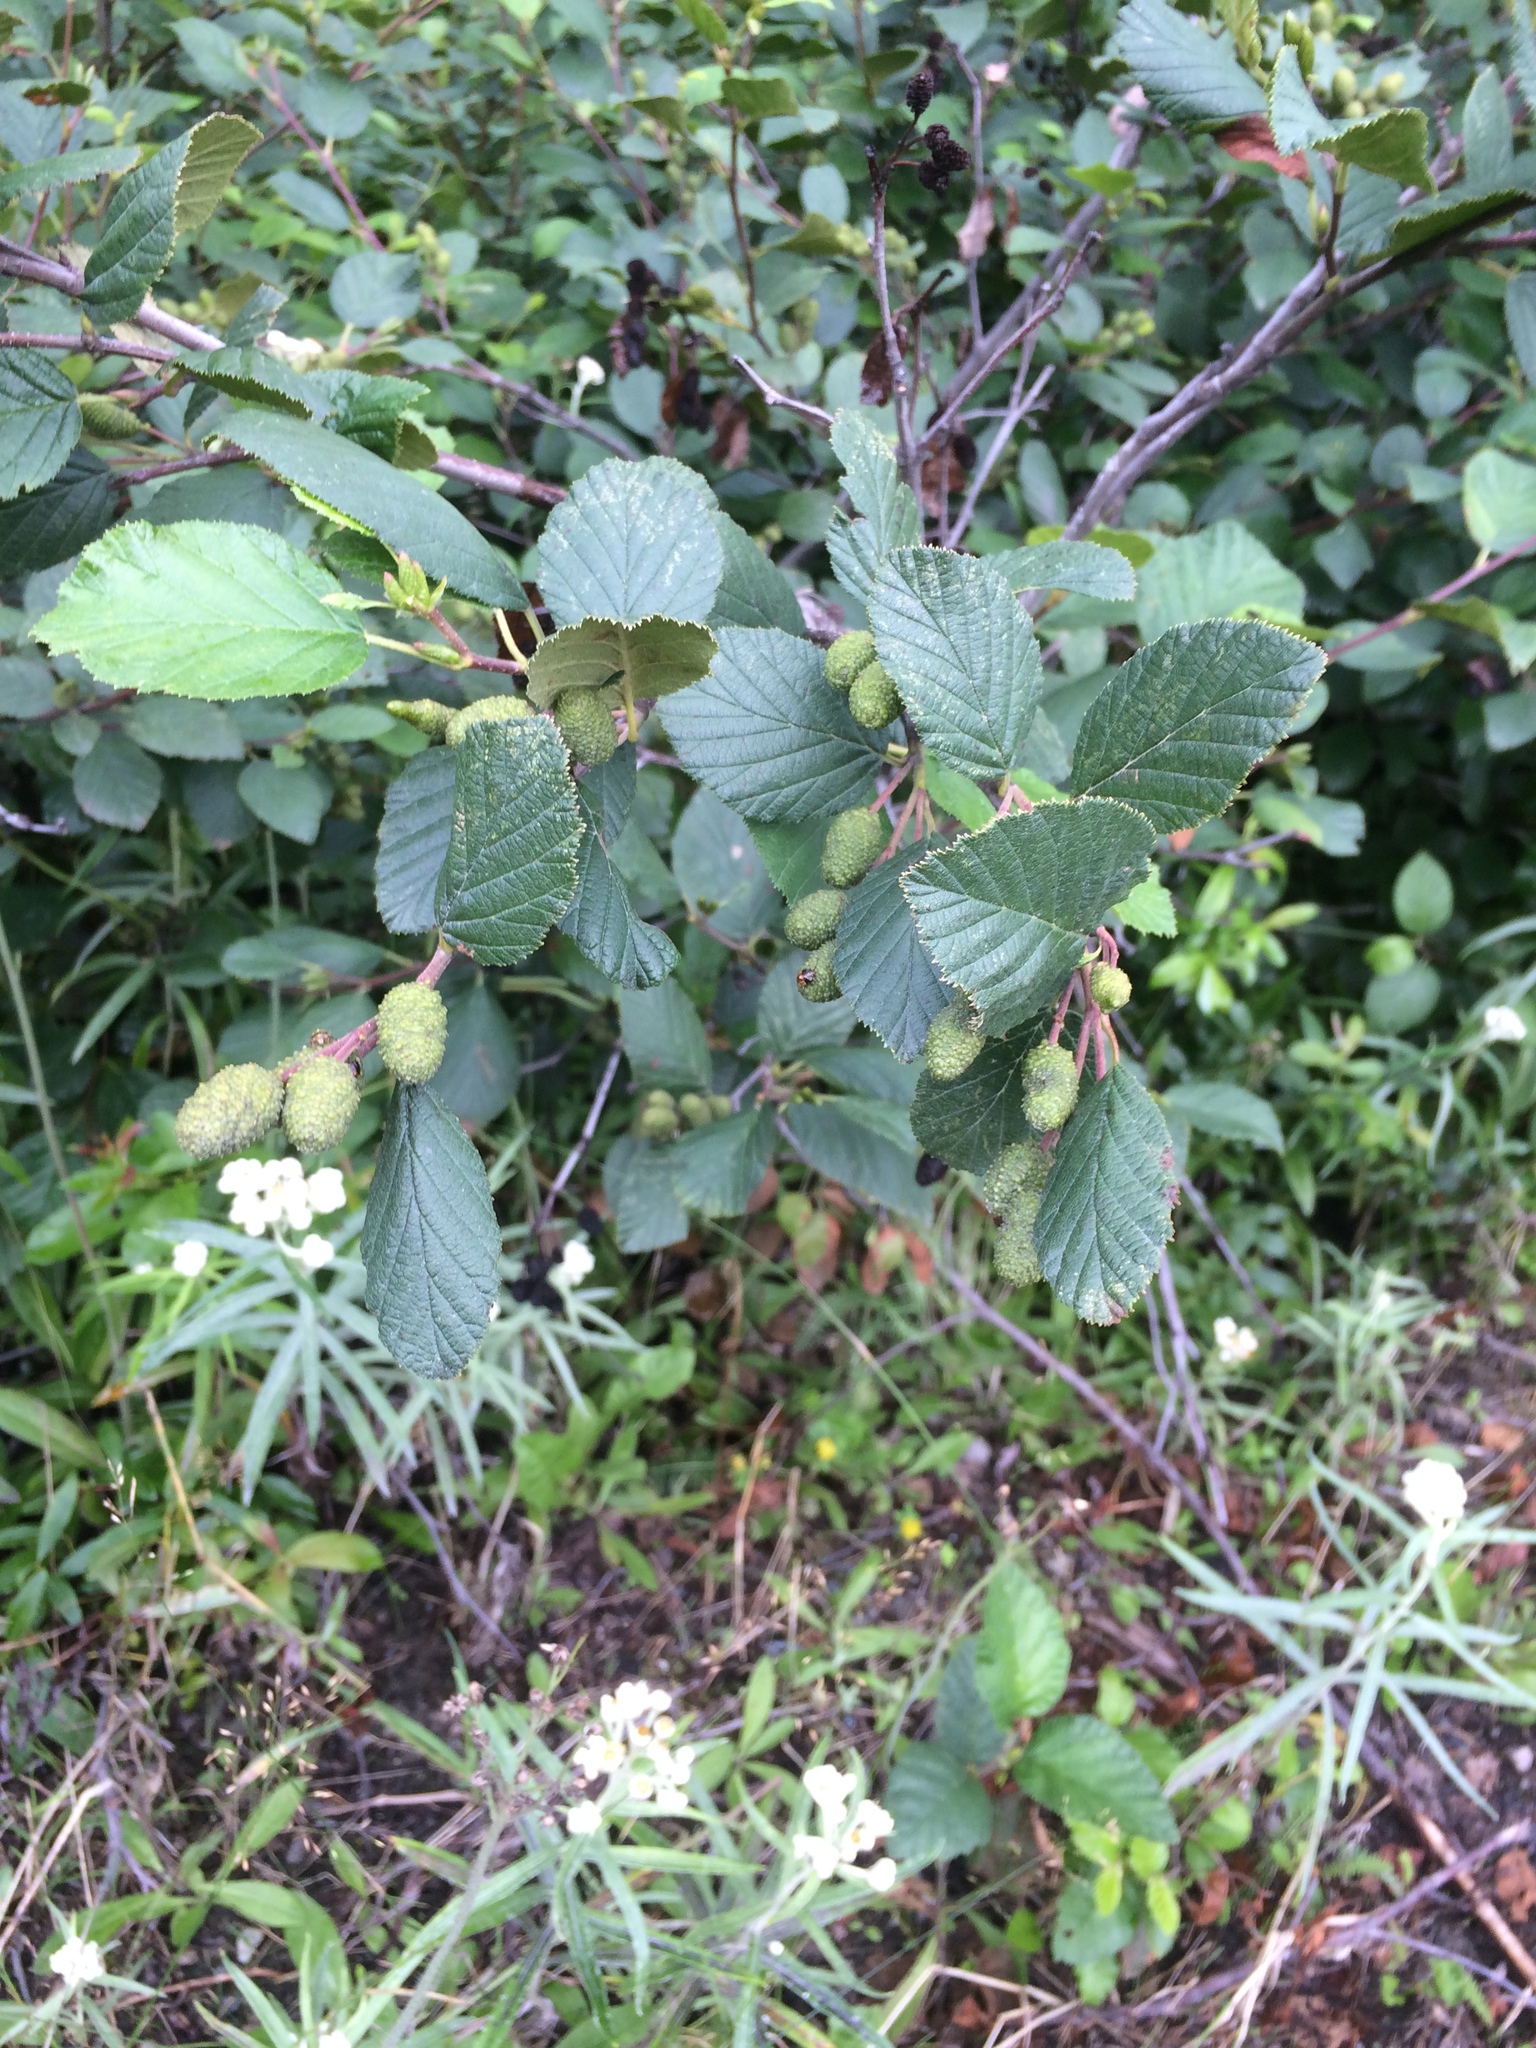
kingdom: Plantae
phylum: Tracheophyta
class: Magnoliopsida
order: Fagales
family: Betulaceae
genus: Alnus
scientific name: Alnus alnobetula
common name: Green alder
